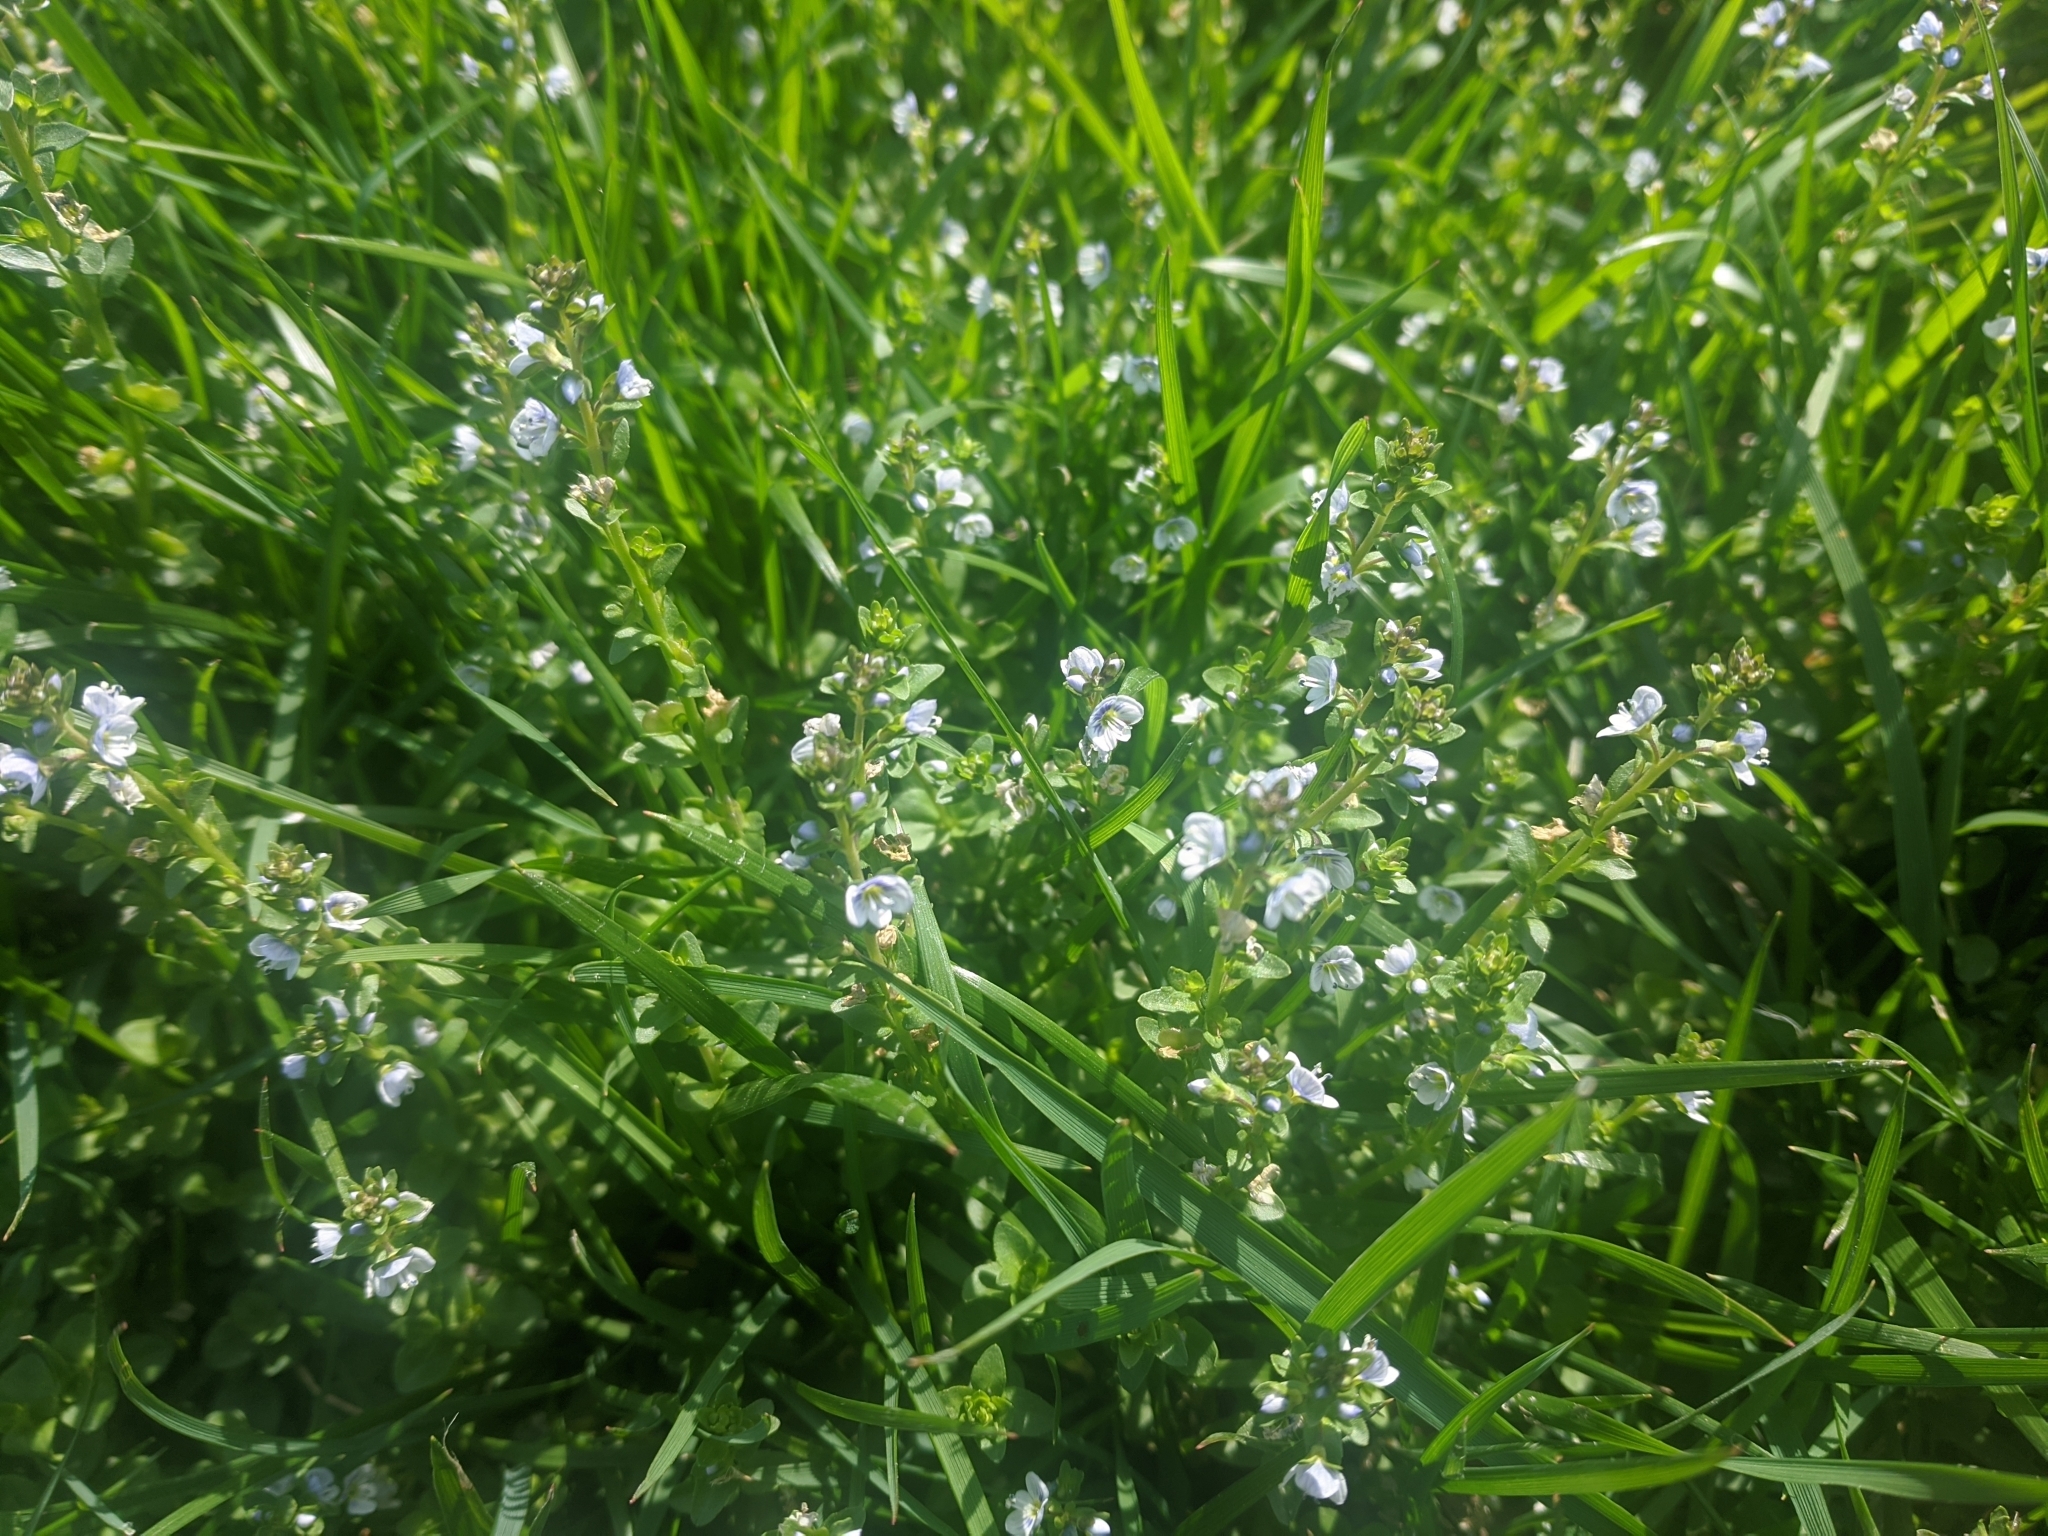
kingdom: Plantae
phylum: Tracheophyta
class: Magnoliopsida
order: Lamiales
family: Plantaginaceae
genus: Veronica
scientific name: Veronica serpyllifolia
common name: Thyme-leaved speedwell
